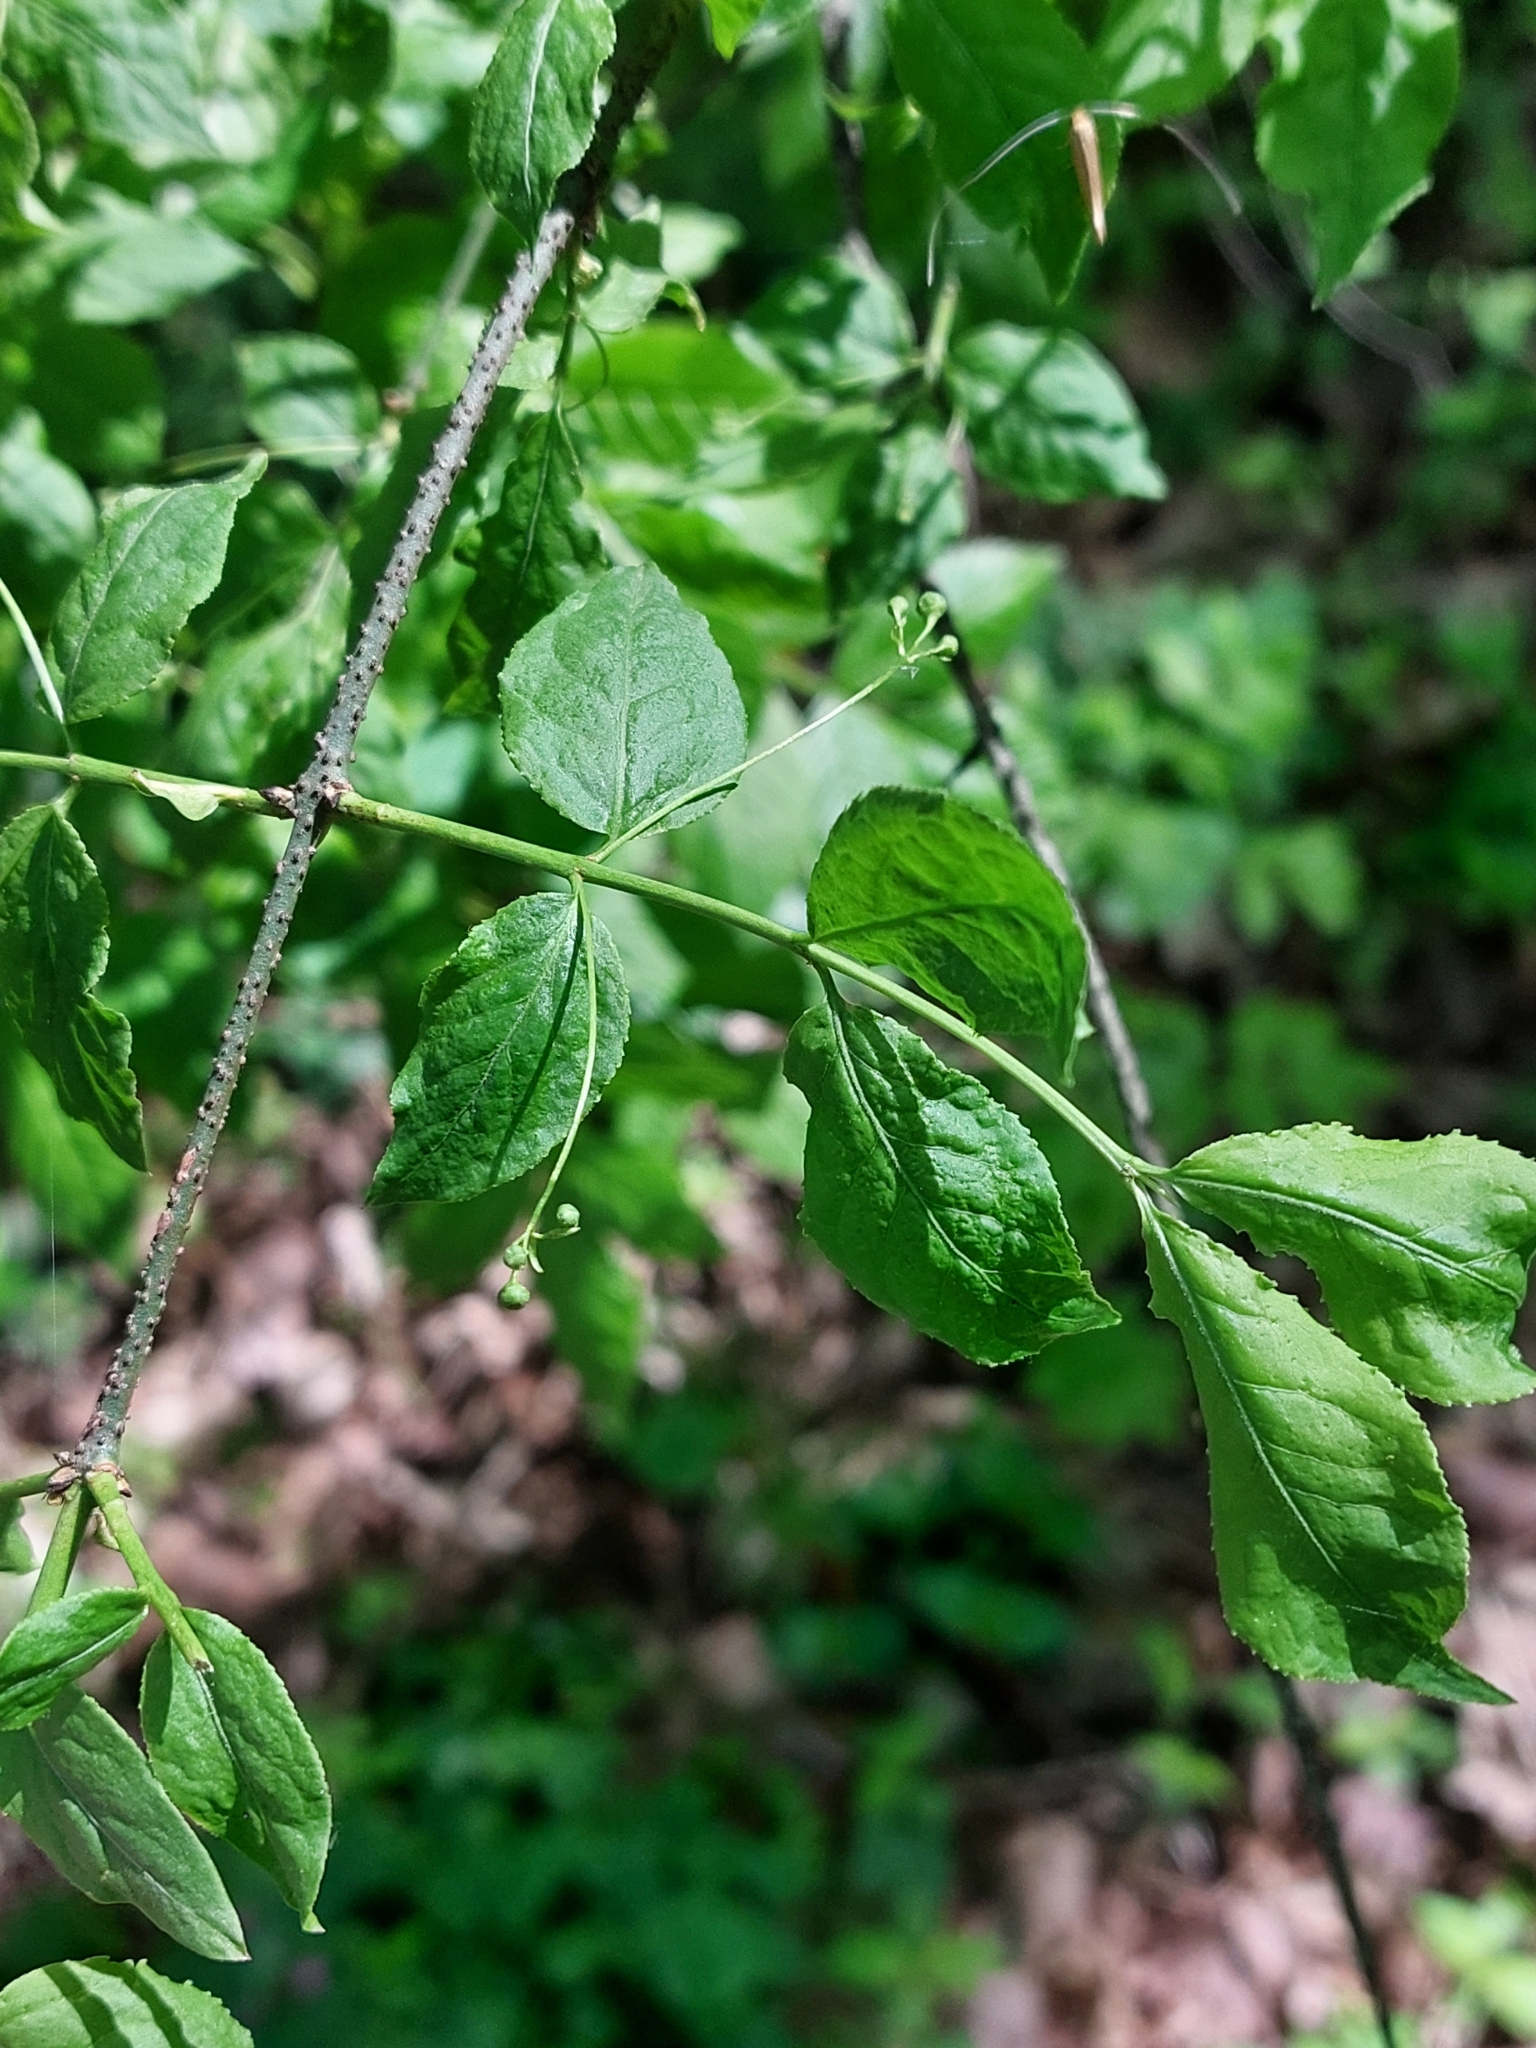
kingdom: Plantae
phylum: Tracheophyta
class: Magnoliopsida
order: Celastrales
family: Celastraceae
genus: Euonymus
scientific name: Euonymus verrucosus
